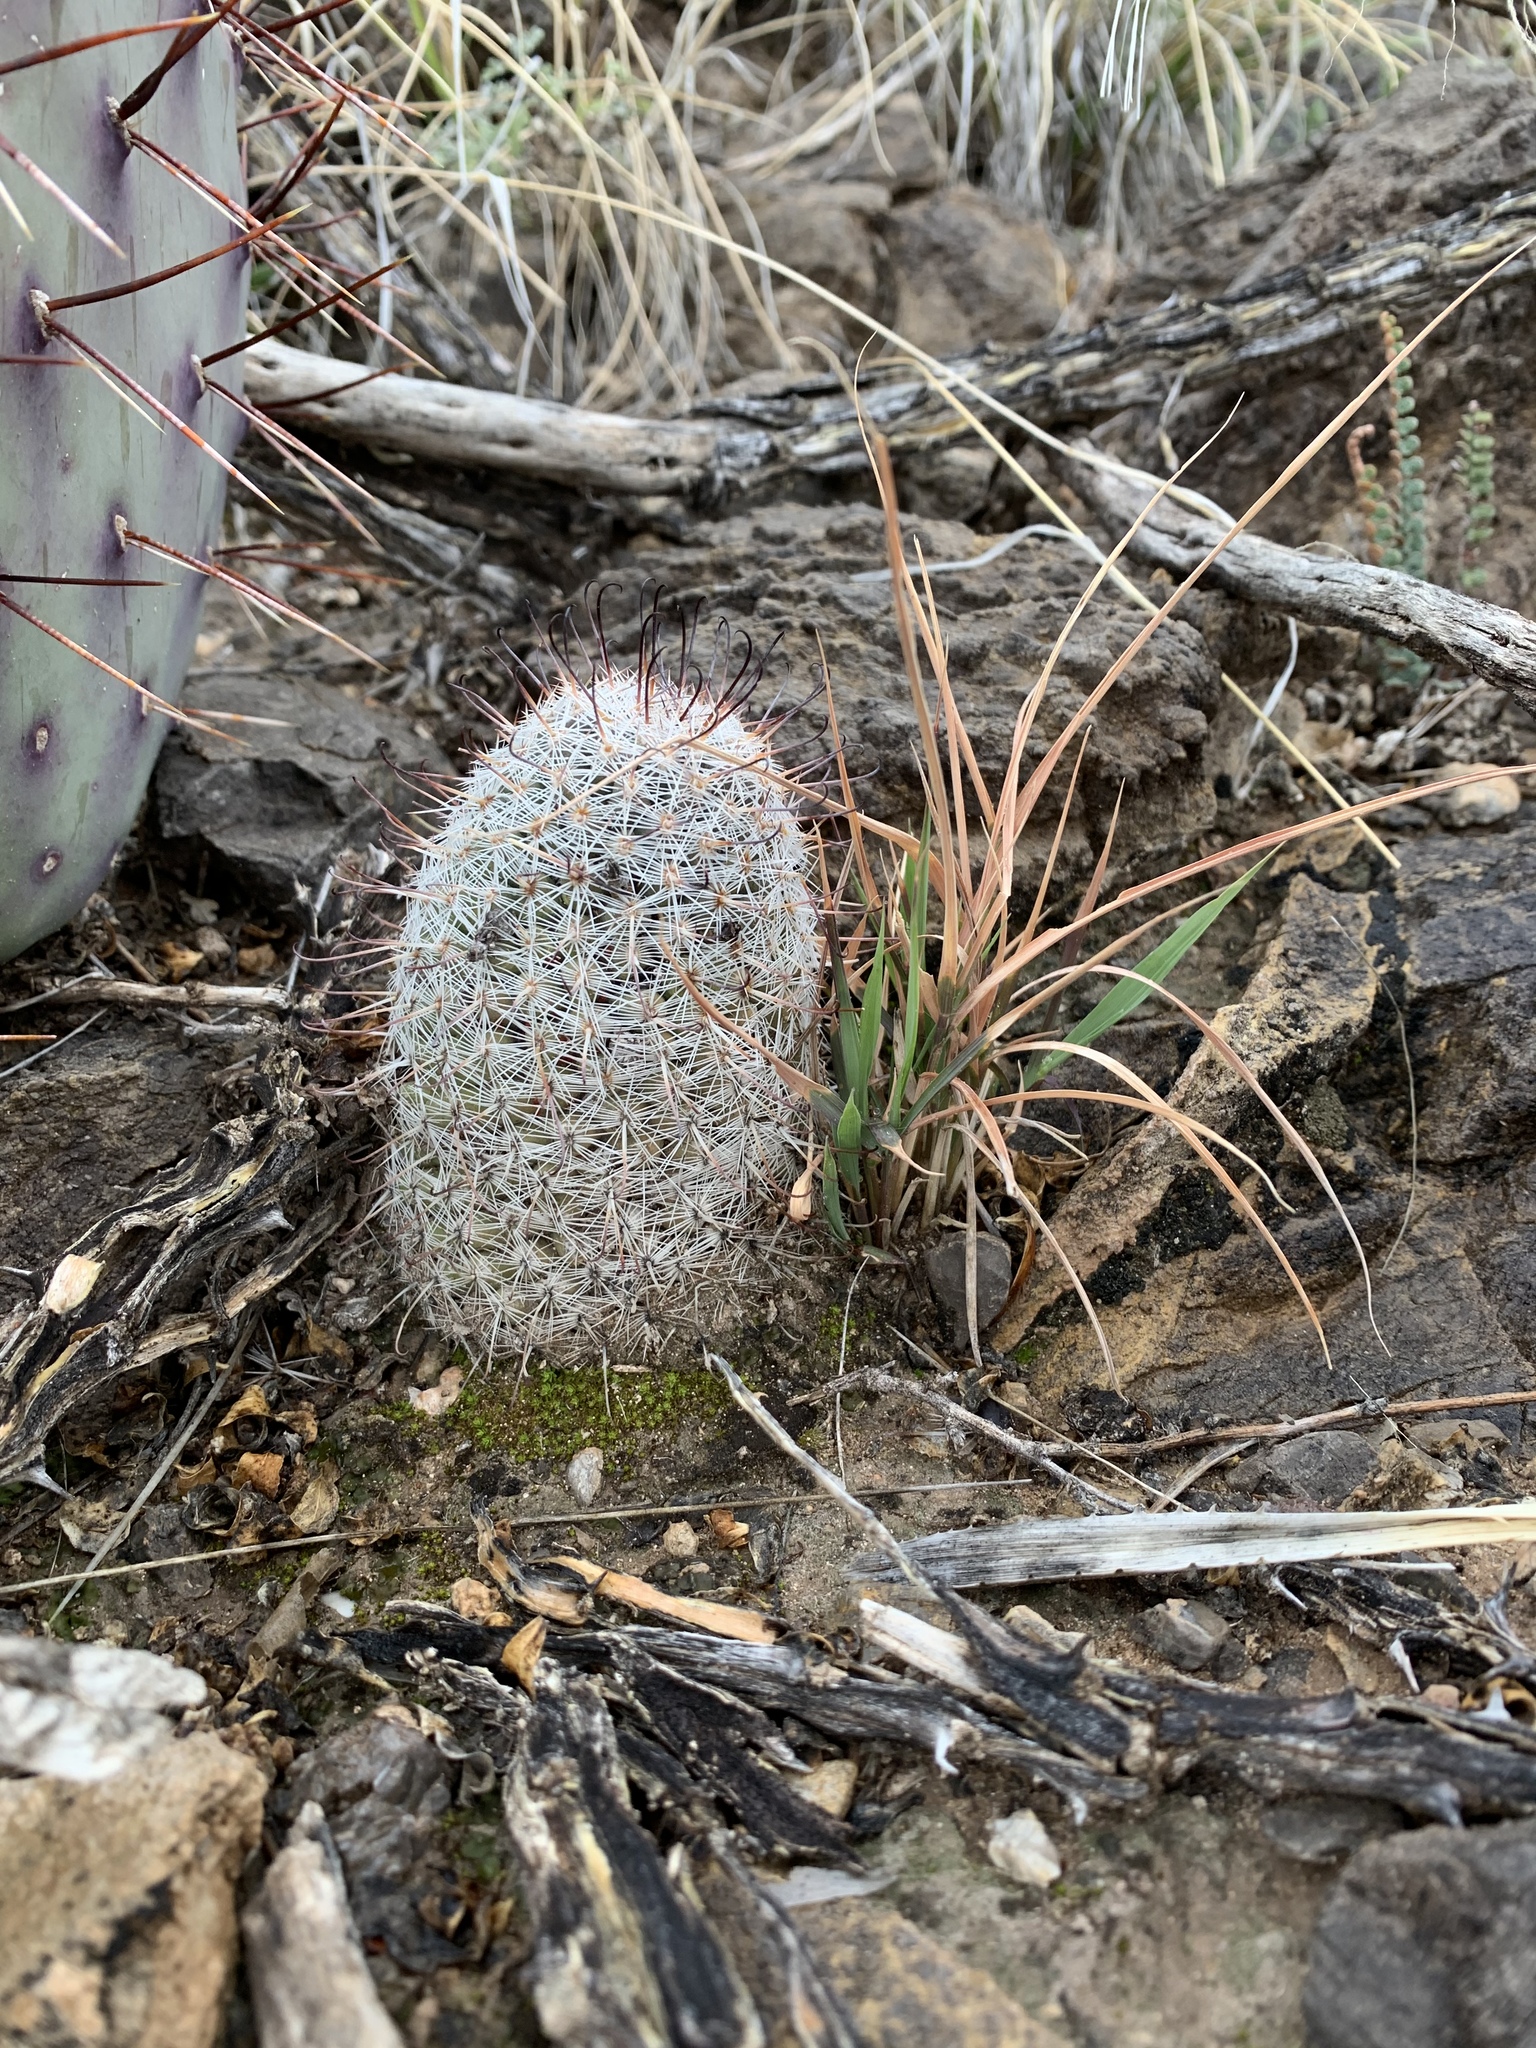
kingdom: Plantae
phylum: Tracheophyta
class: Magnoliopsida
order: Caryophyllales
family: Cactaceae
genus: Cochemiea
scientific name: Cochemiea grahamii
